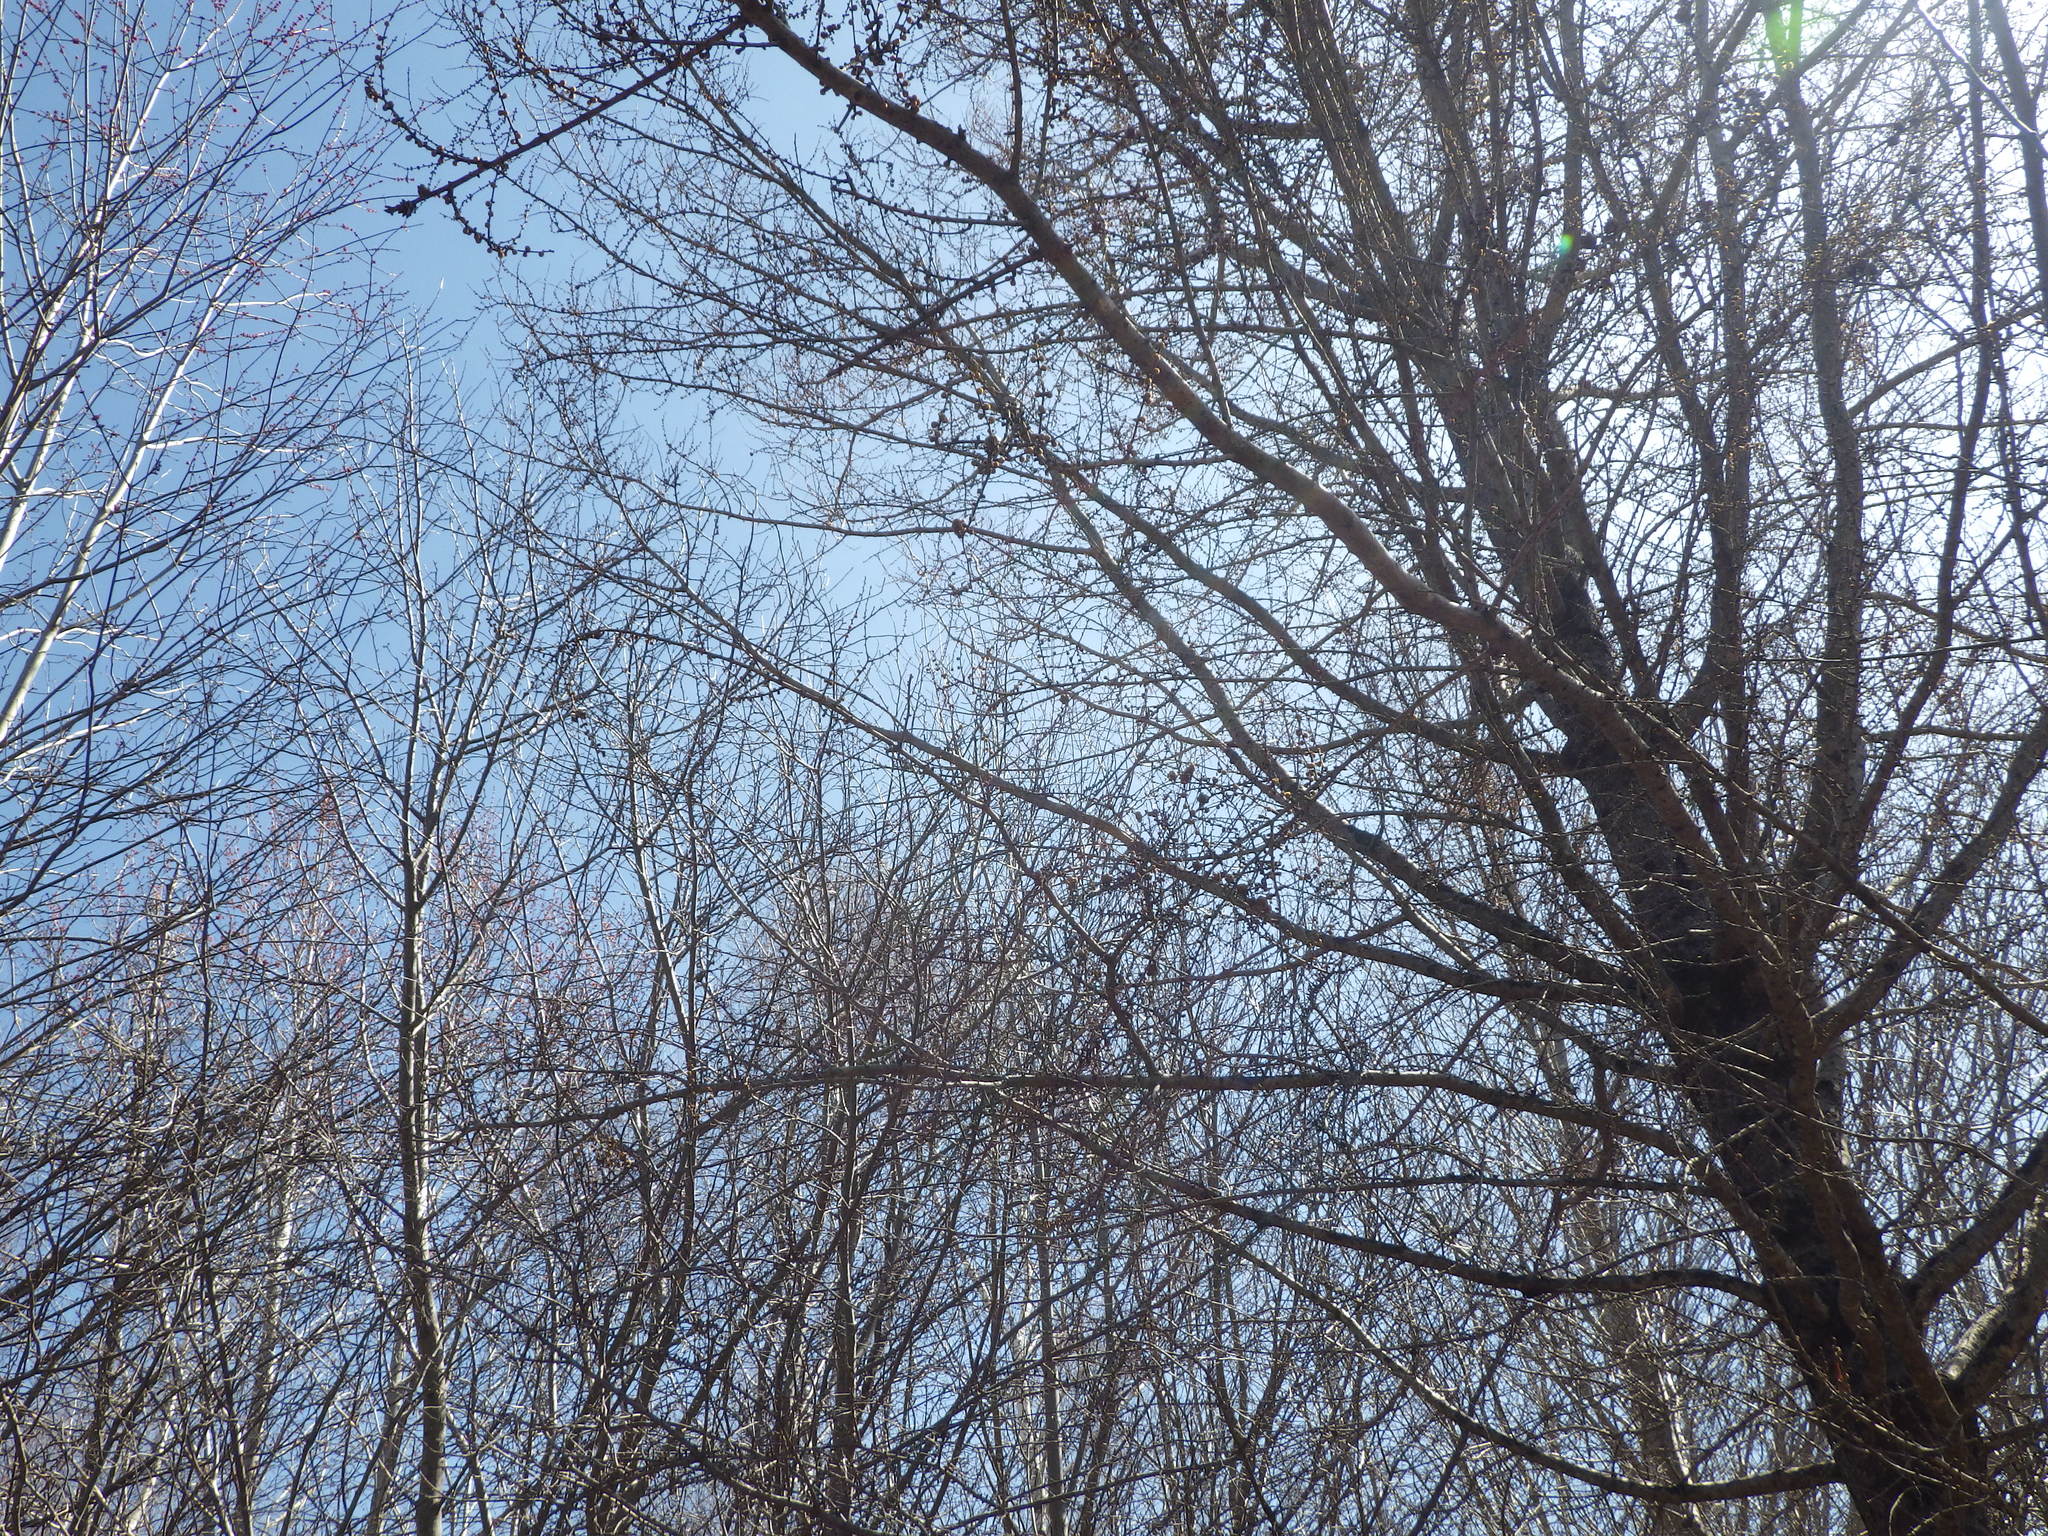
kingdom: Plantae
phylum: Tracheophyta
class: Pinopsida
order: Pinales
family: Pinaceae
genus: Larix
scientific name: Larix laricina
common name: American larch
